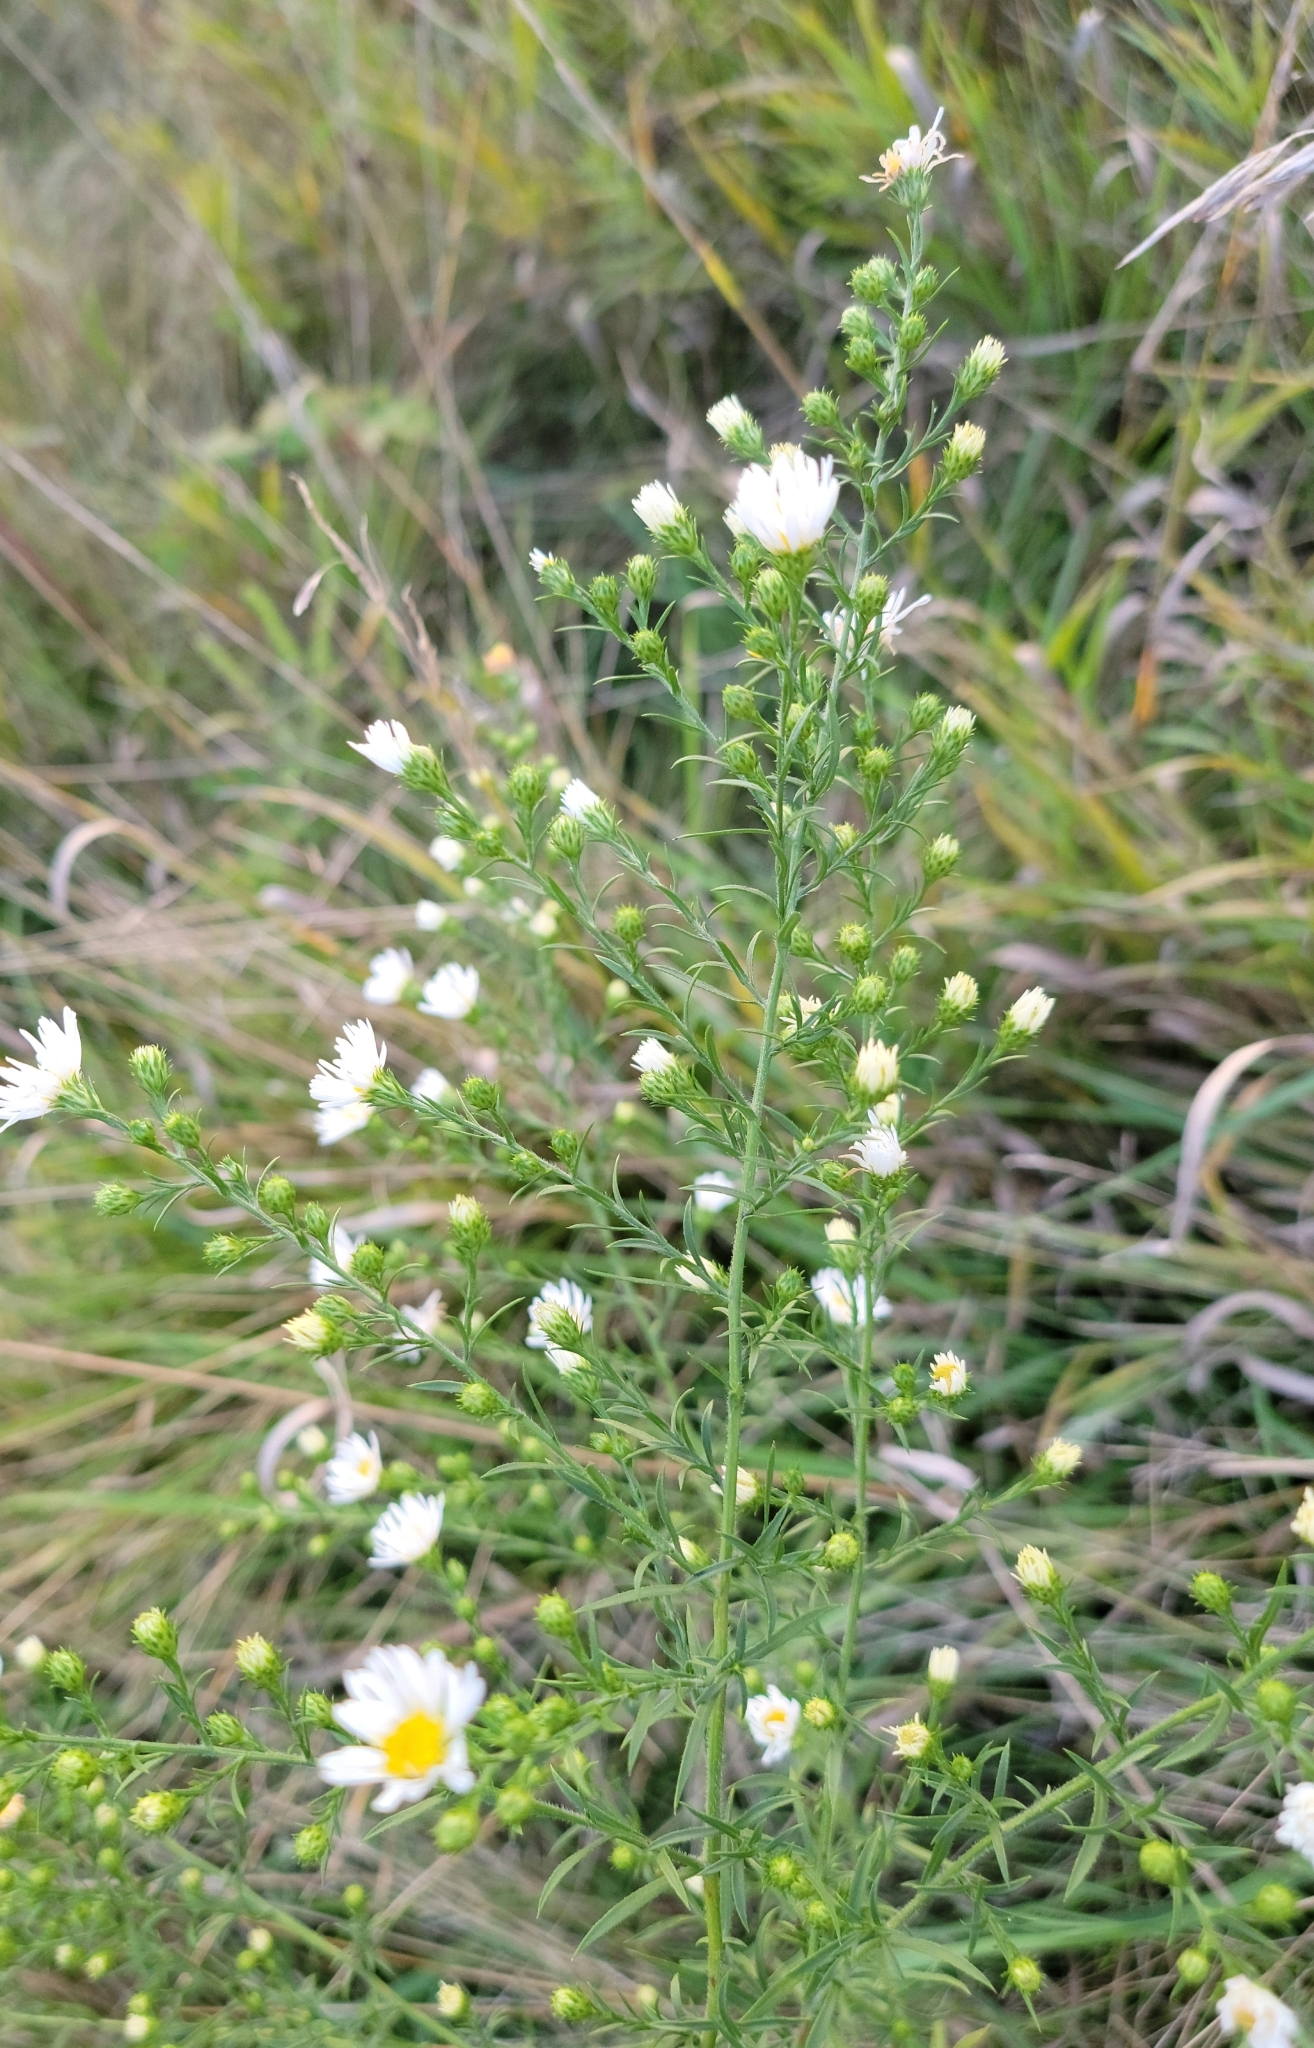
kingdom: Plantae
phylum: Tracheophyta
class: Magnoliopsida
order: Asterales
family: Asteraceae
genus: Symphyotrichum
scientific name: Symphyotrichum pilosum
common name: Awl aster
